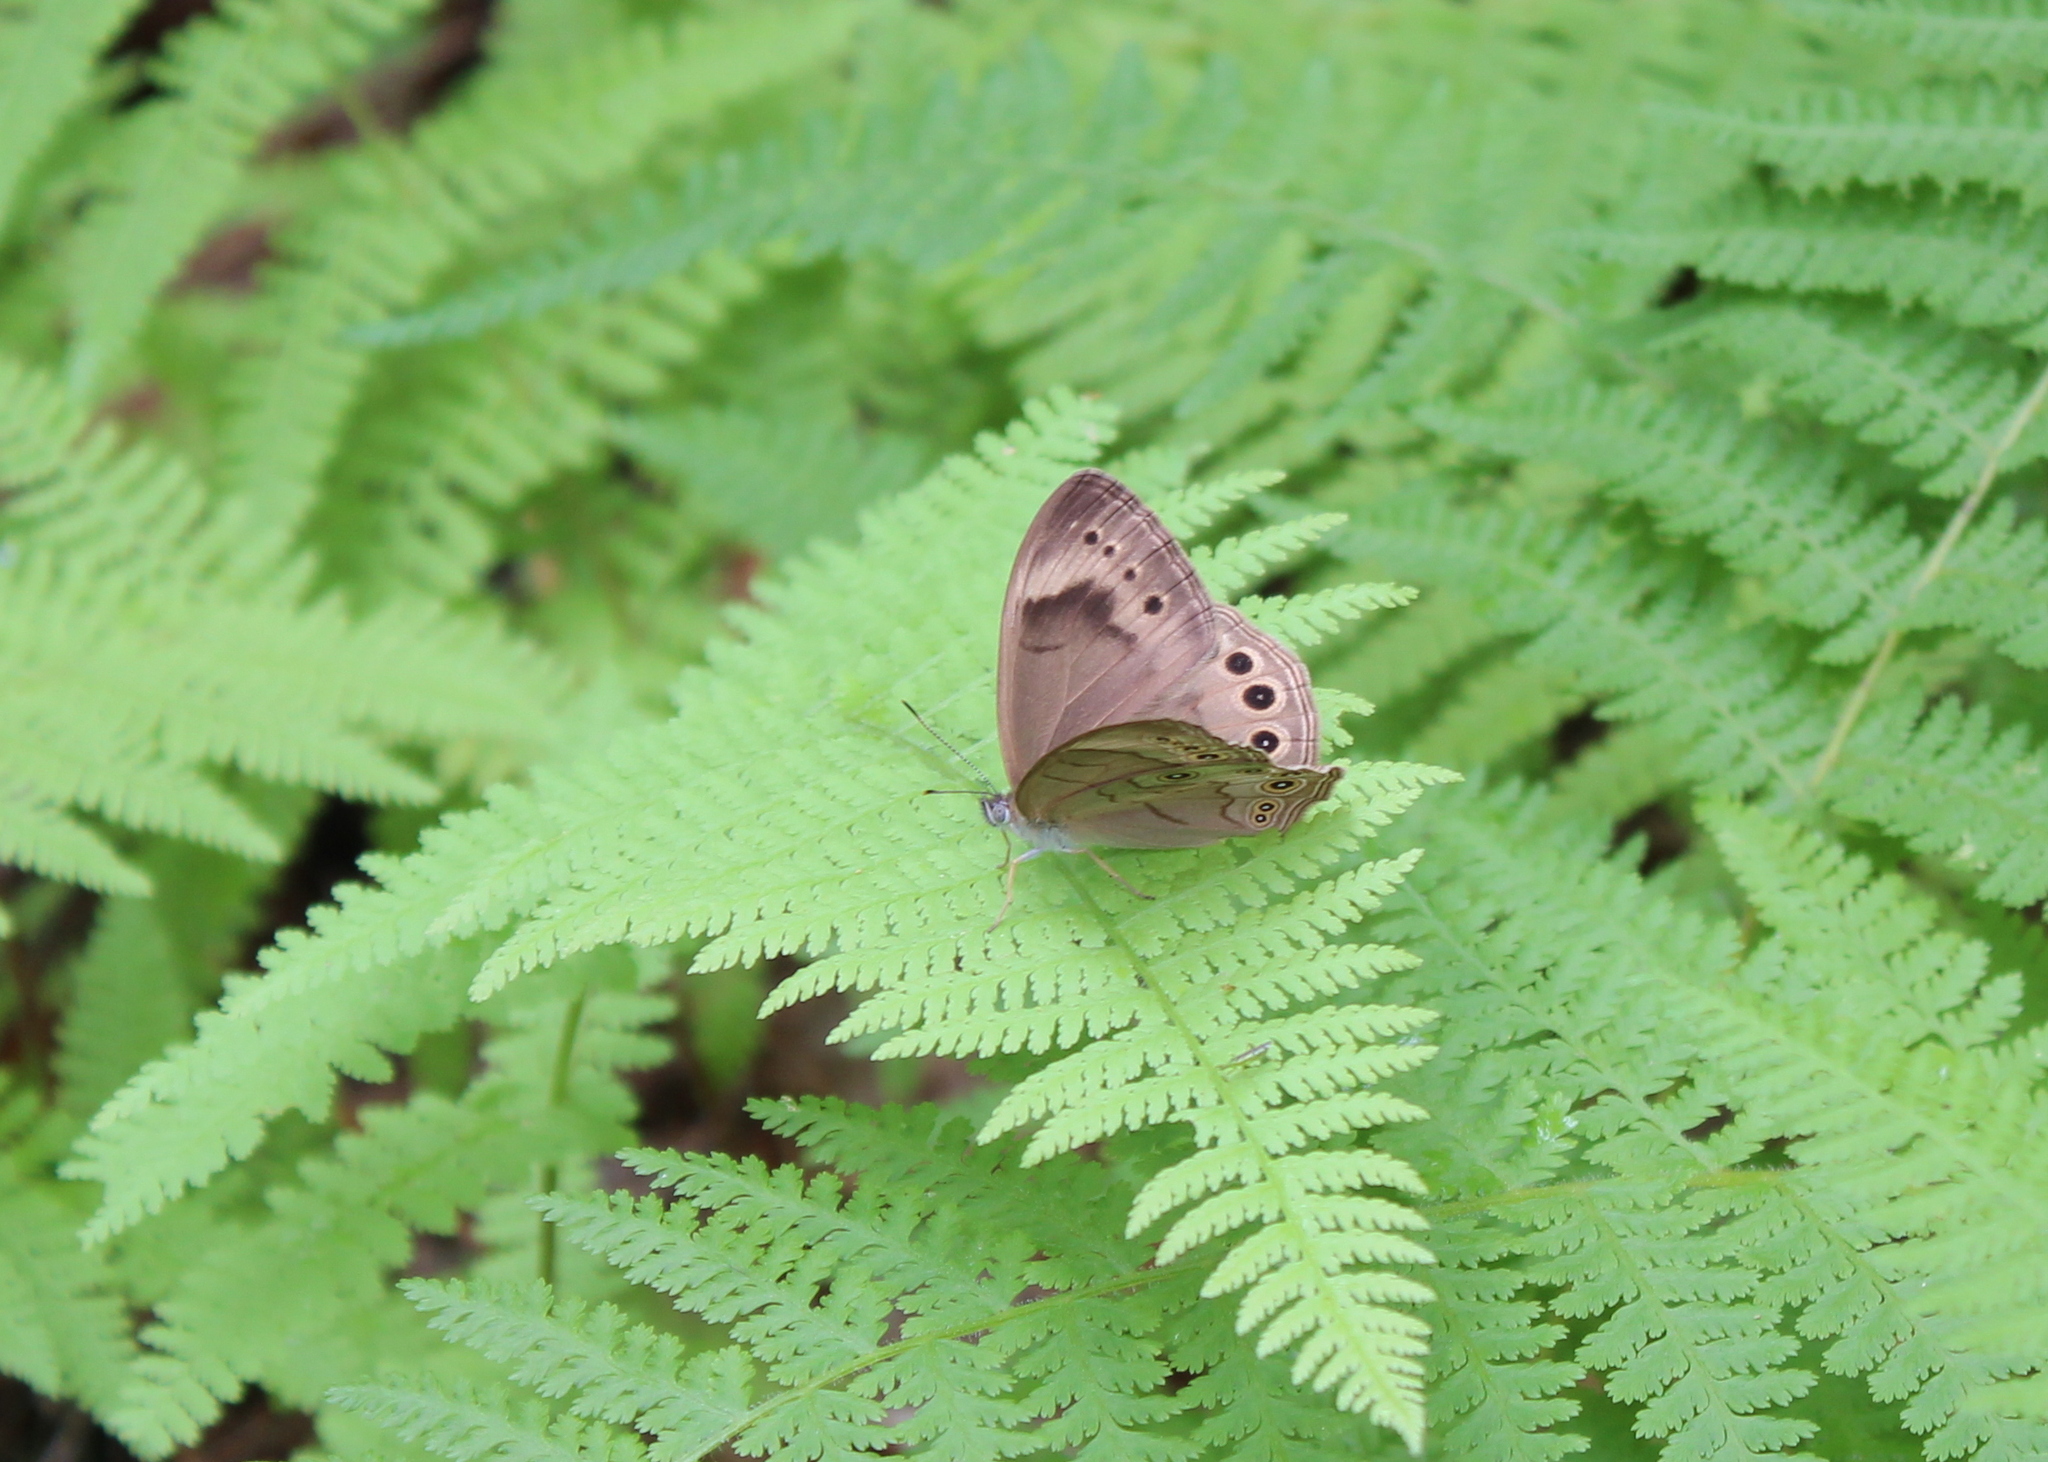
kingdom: Animalia
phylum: Arthropoda
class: Insecta
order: Lepidoptera
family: Nymphalidae
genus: Lethe
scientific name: Lethe eurydice
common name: Eyed brown
